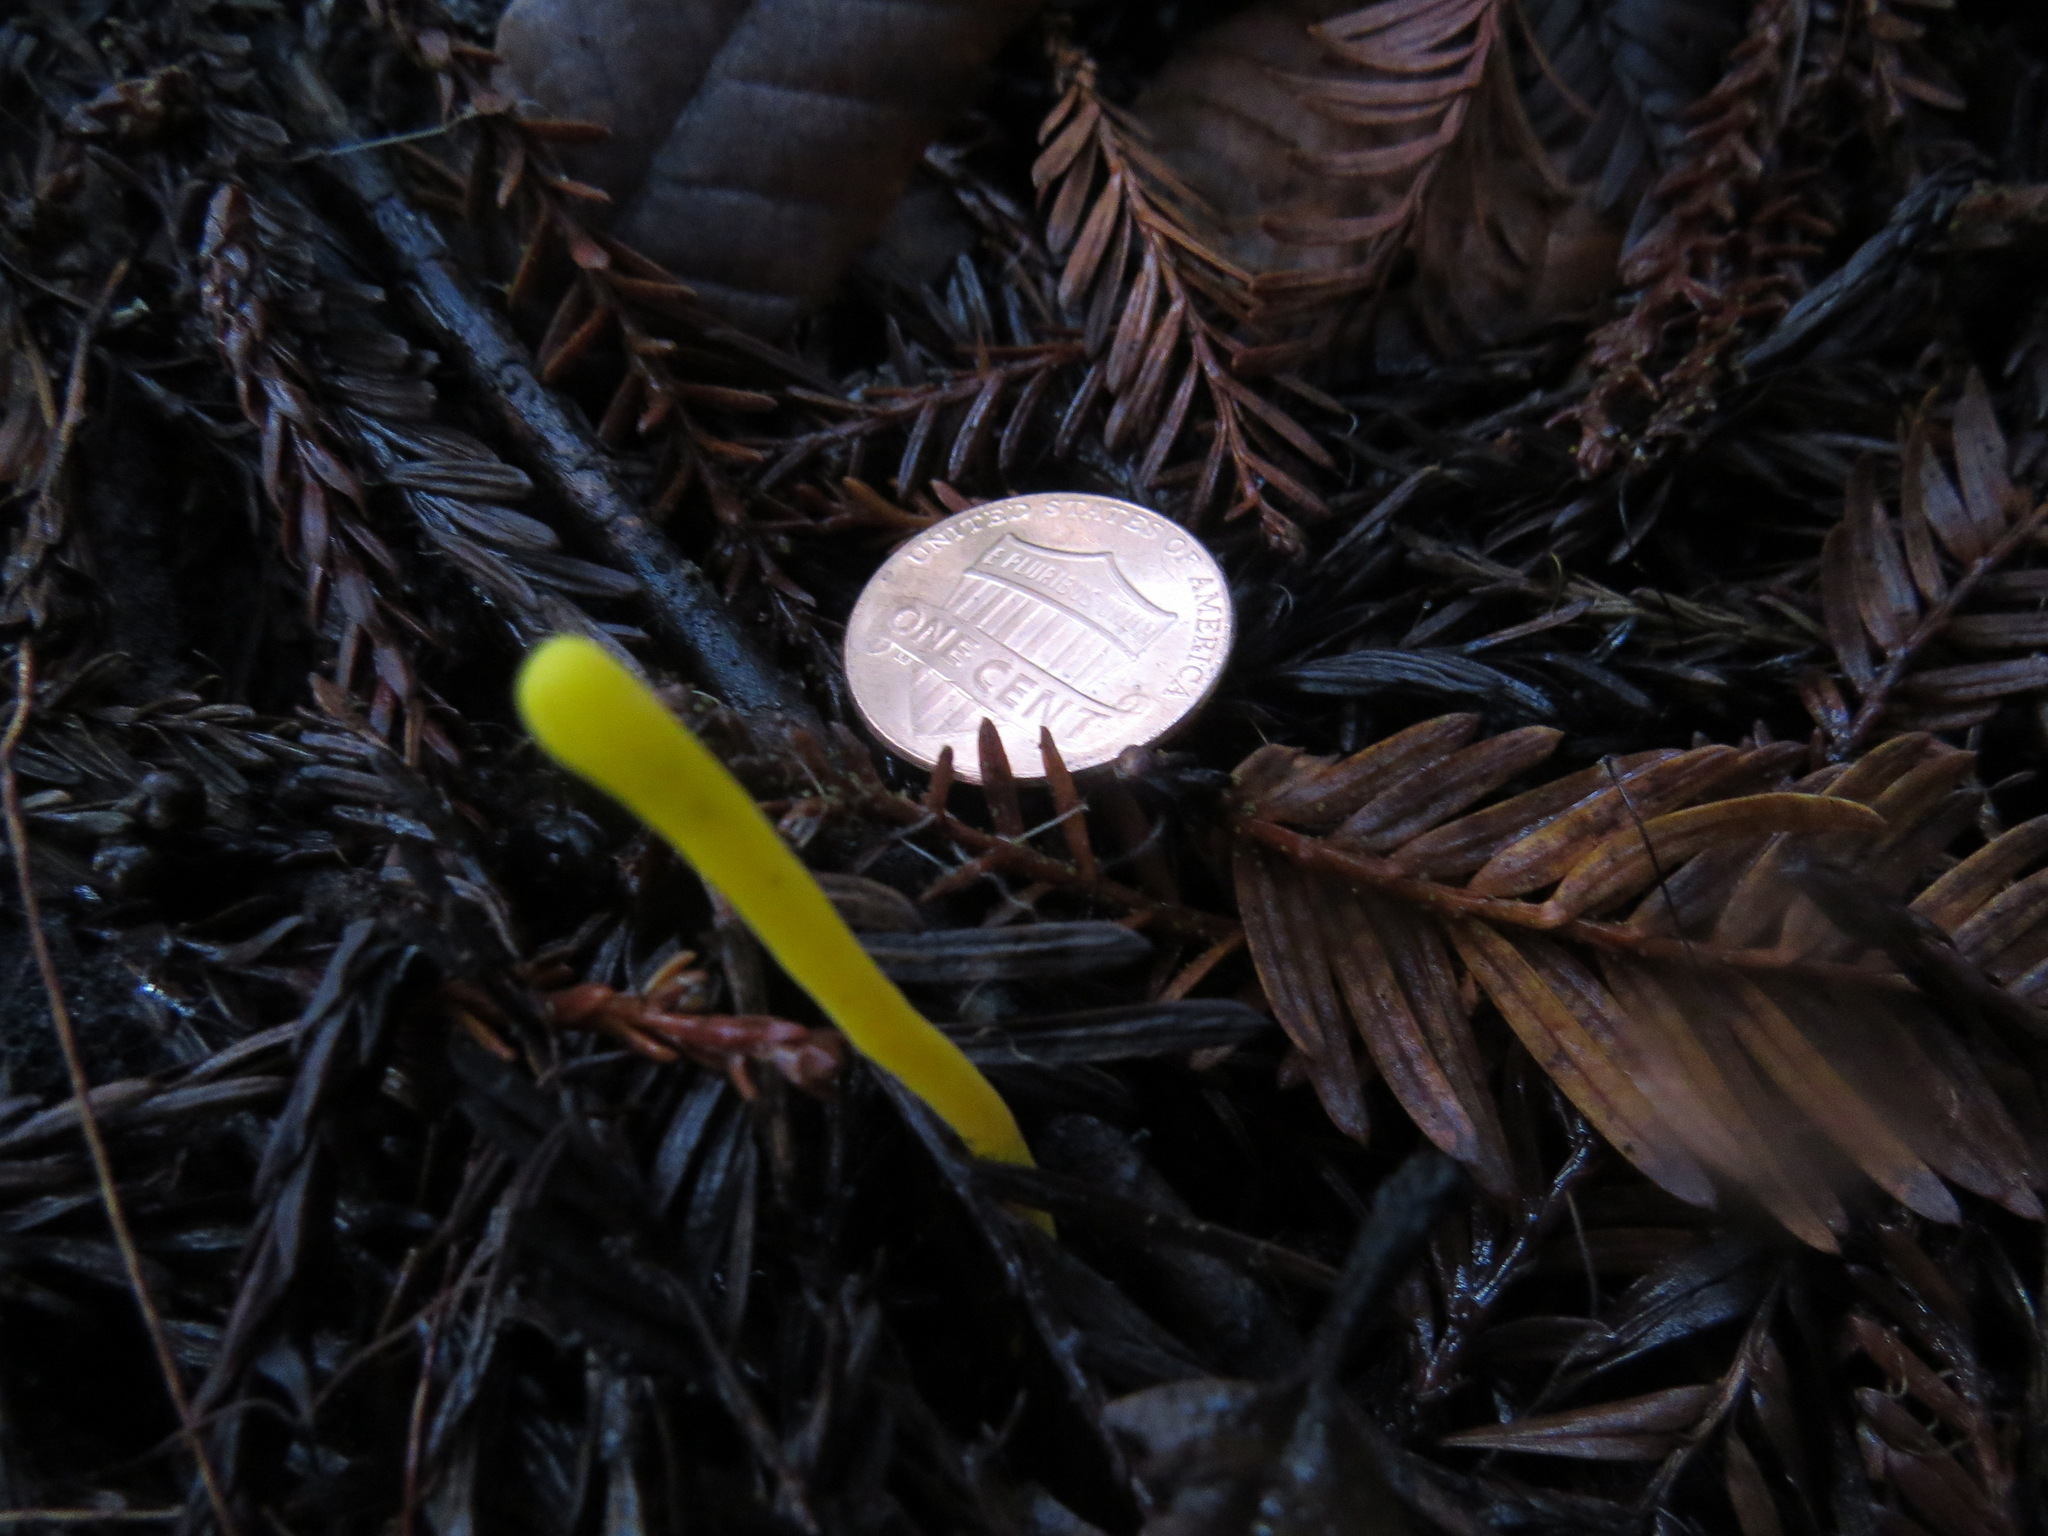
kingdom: Fungi
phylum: Basidiomycota
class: Agaricomycetes
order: Agaricales
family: Clavariaceae
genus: Clavulinopsis
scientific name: Clavulinopsis laeticolor
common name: Handsome club
